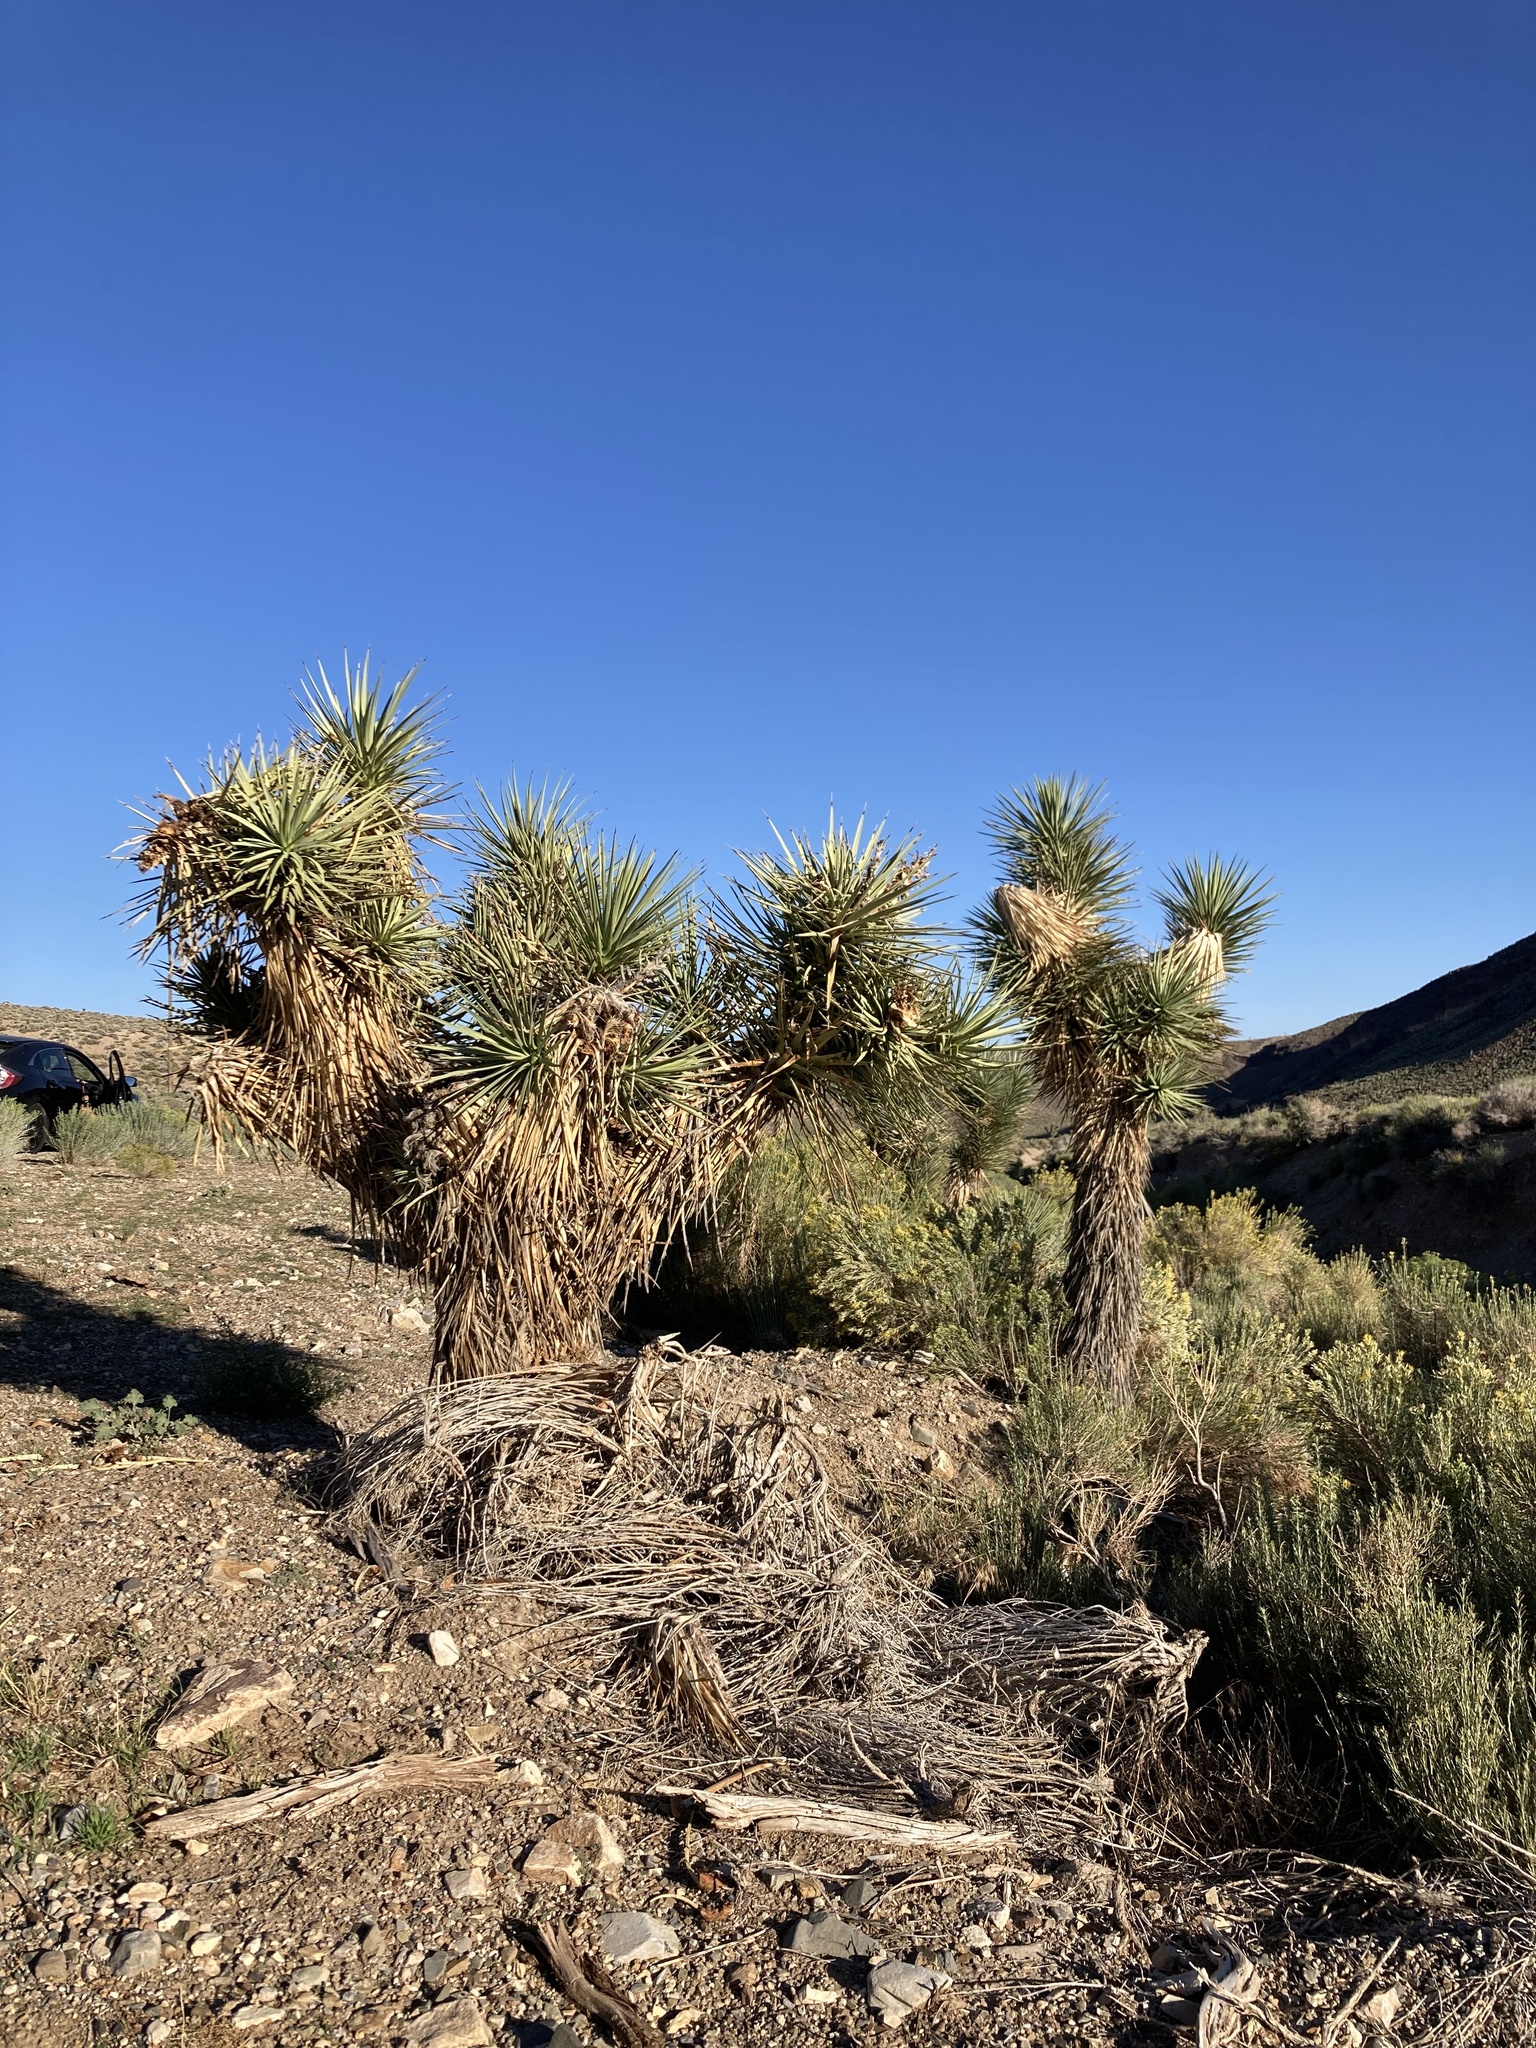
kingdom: Plantae
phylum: Tracheophyta
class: Liliopsida
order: Asparagales
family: Asparagaceae
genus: Yucca
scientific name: Yucca brevifolia
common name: Joshua tree
